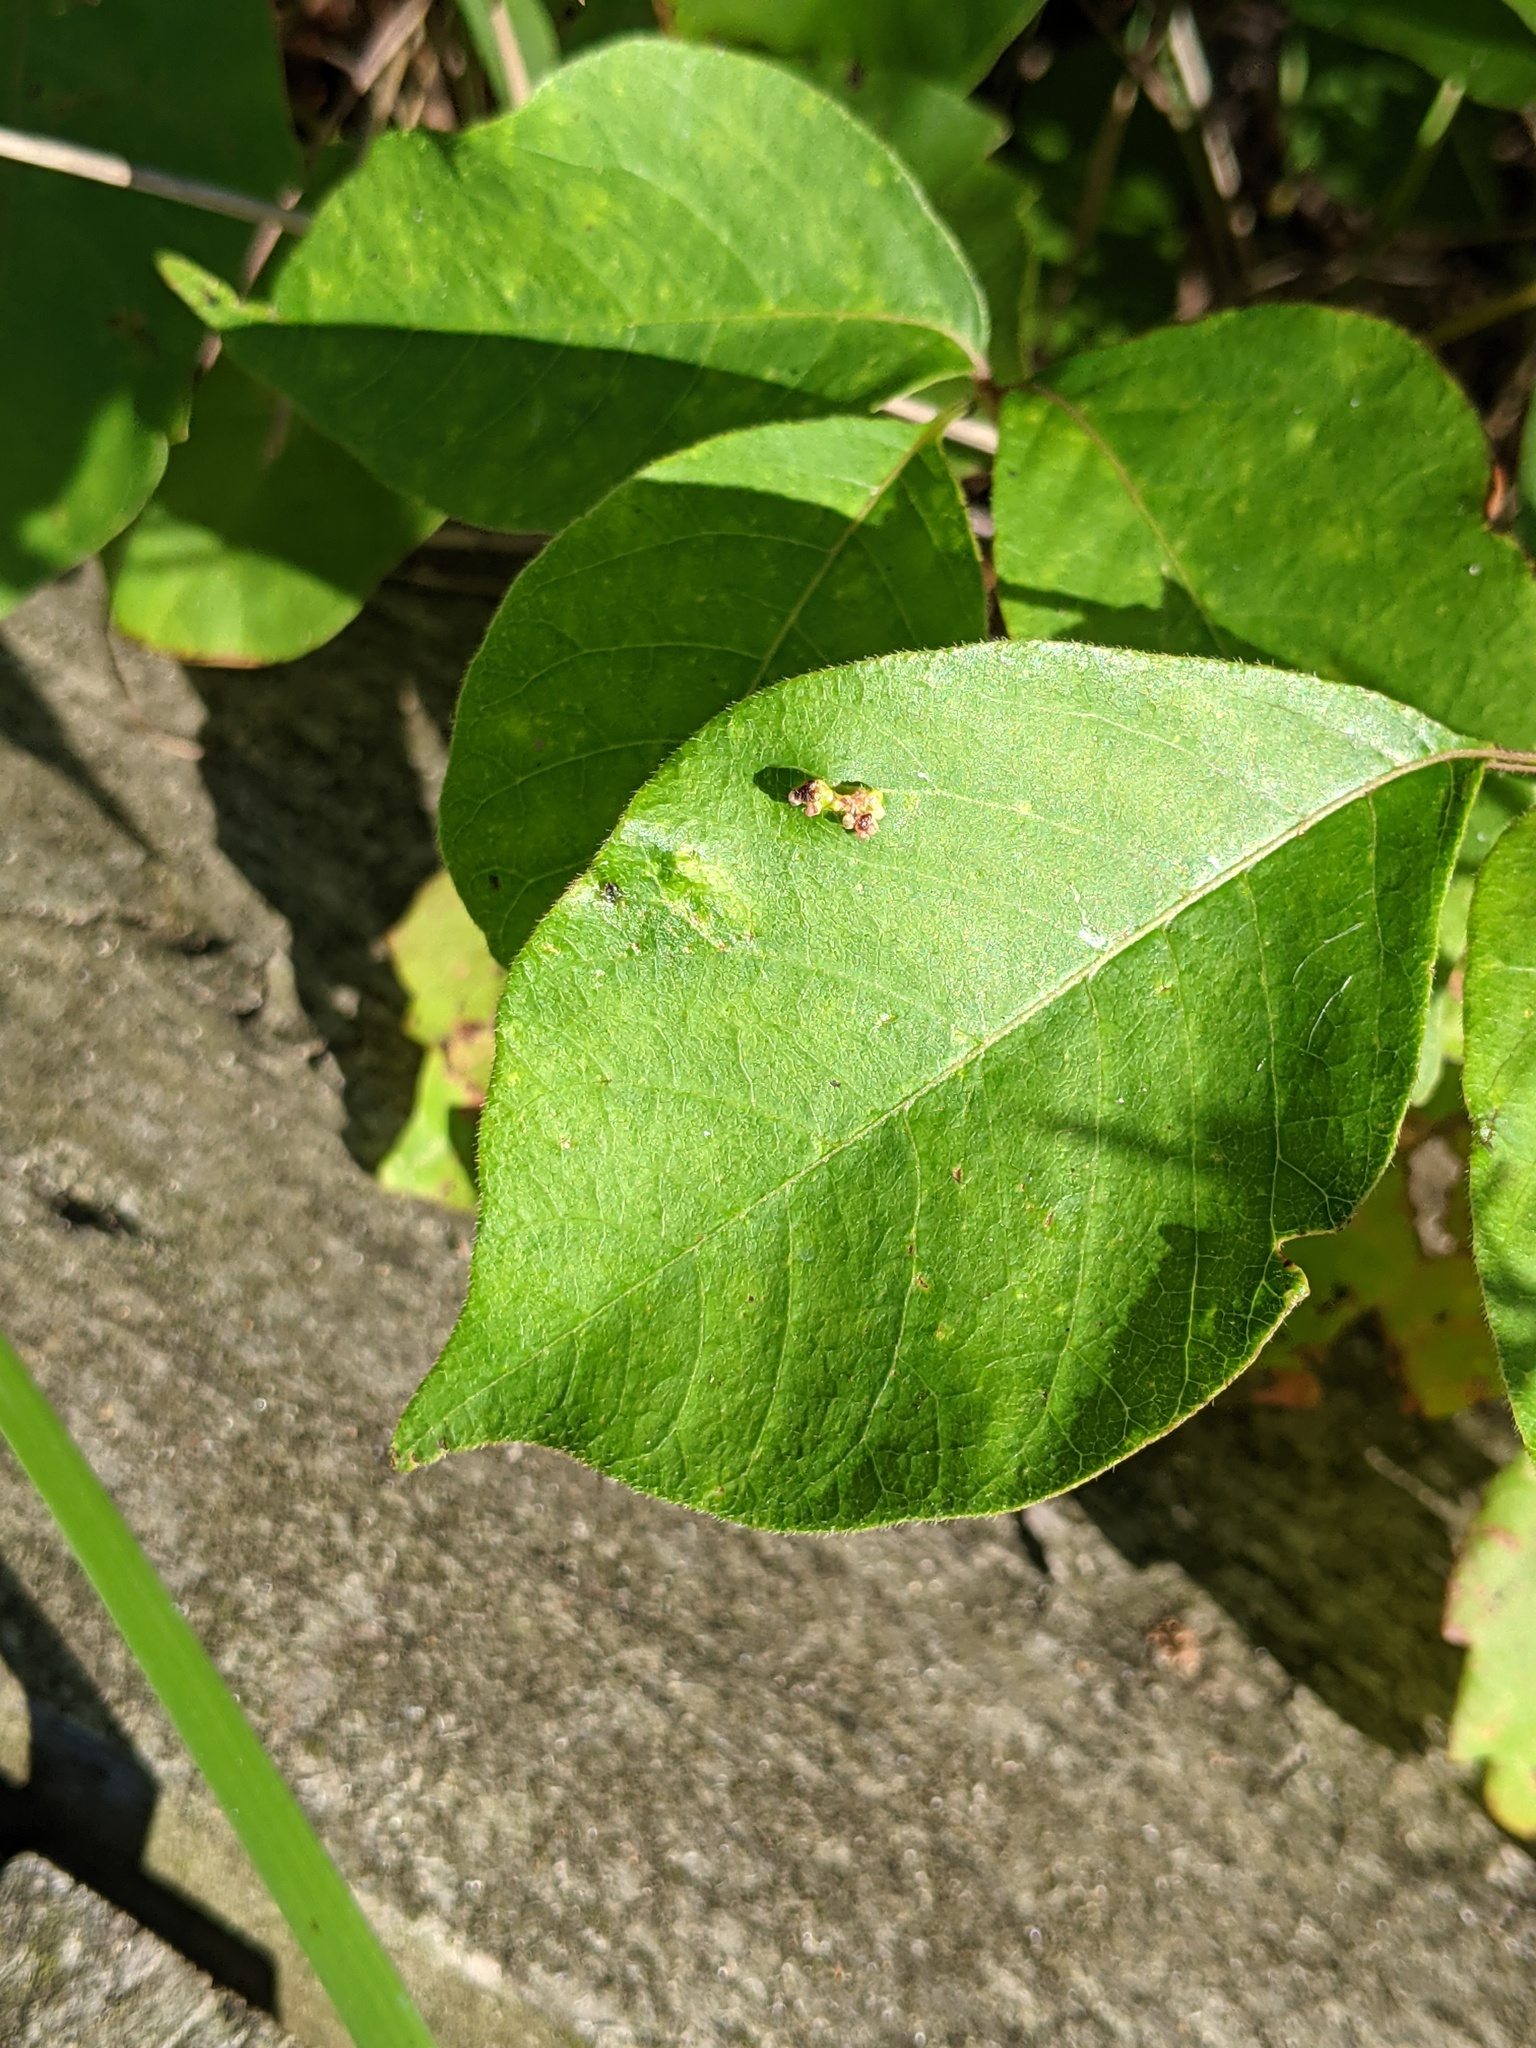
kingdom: Animalia
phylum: Arthropoda
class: Arachnida
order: Trombidiformes
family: Eriophyidae
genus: Aculops
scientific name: Aculops
